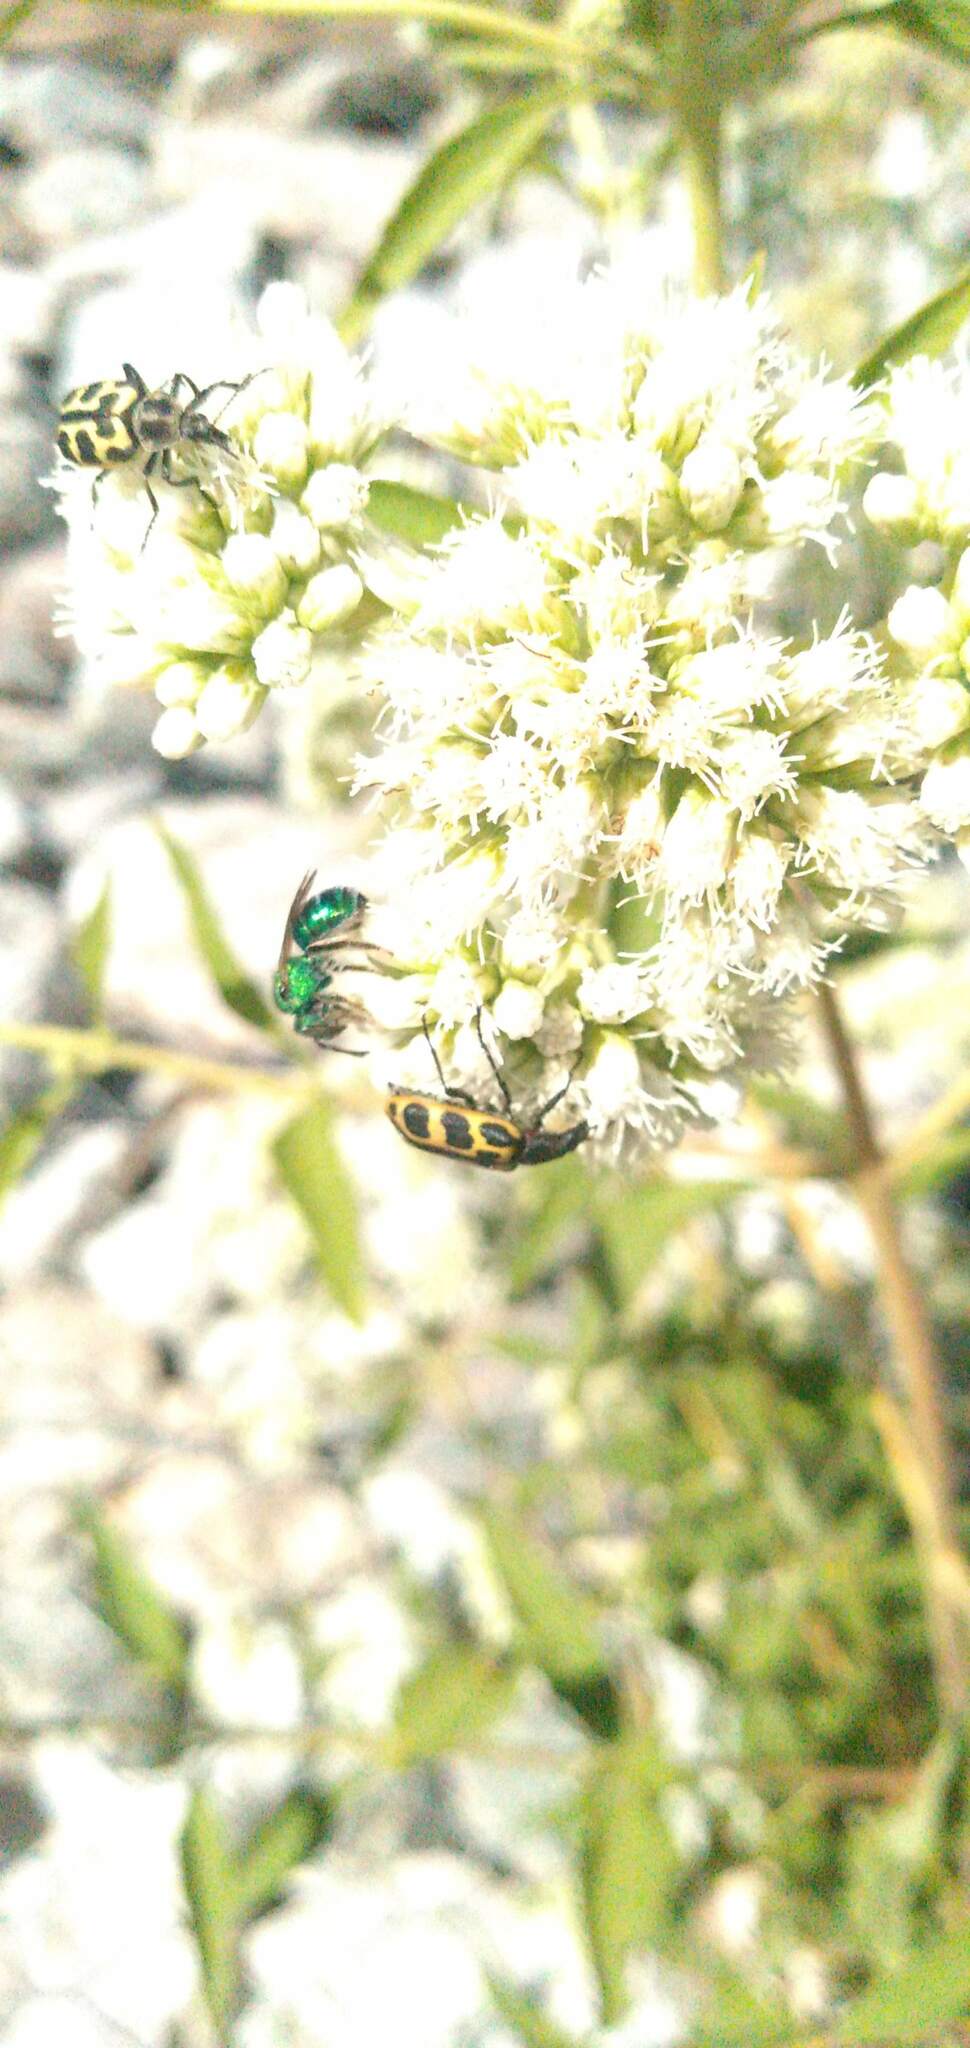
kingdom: Animalia
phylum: Arthropoda
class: Insecta
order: Coleoptera
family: Melyridae
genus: Astylus
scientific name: Astylus atromaculatus
